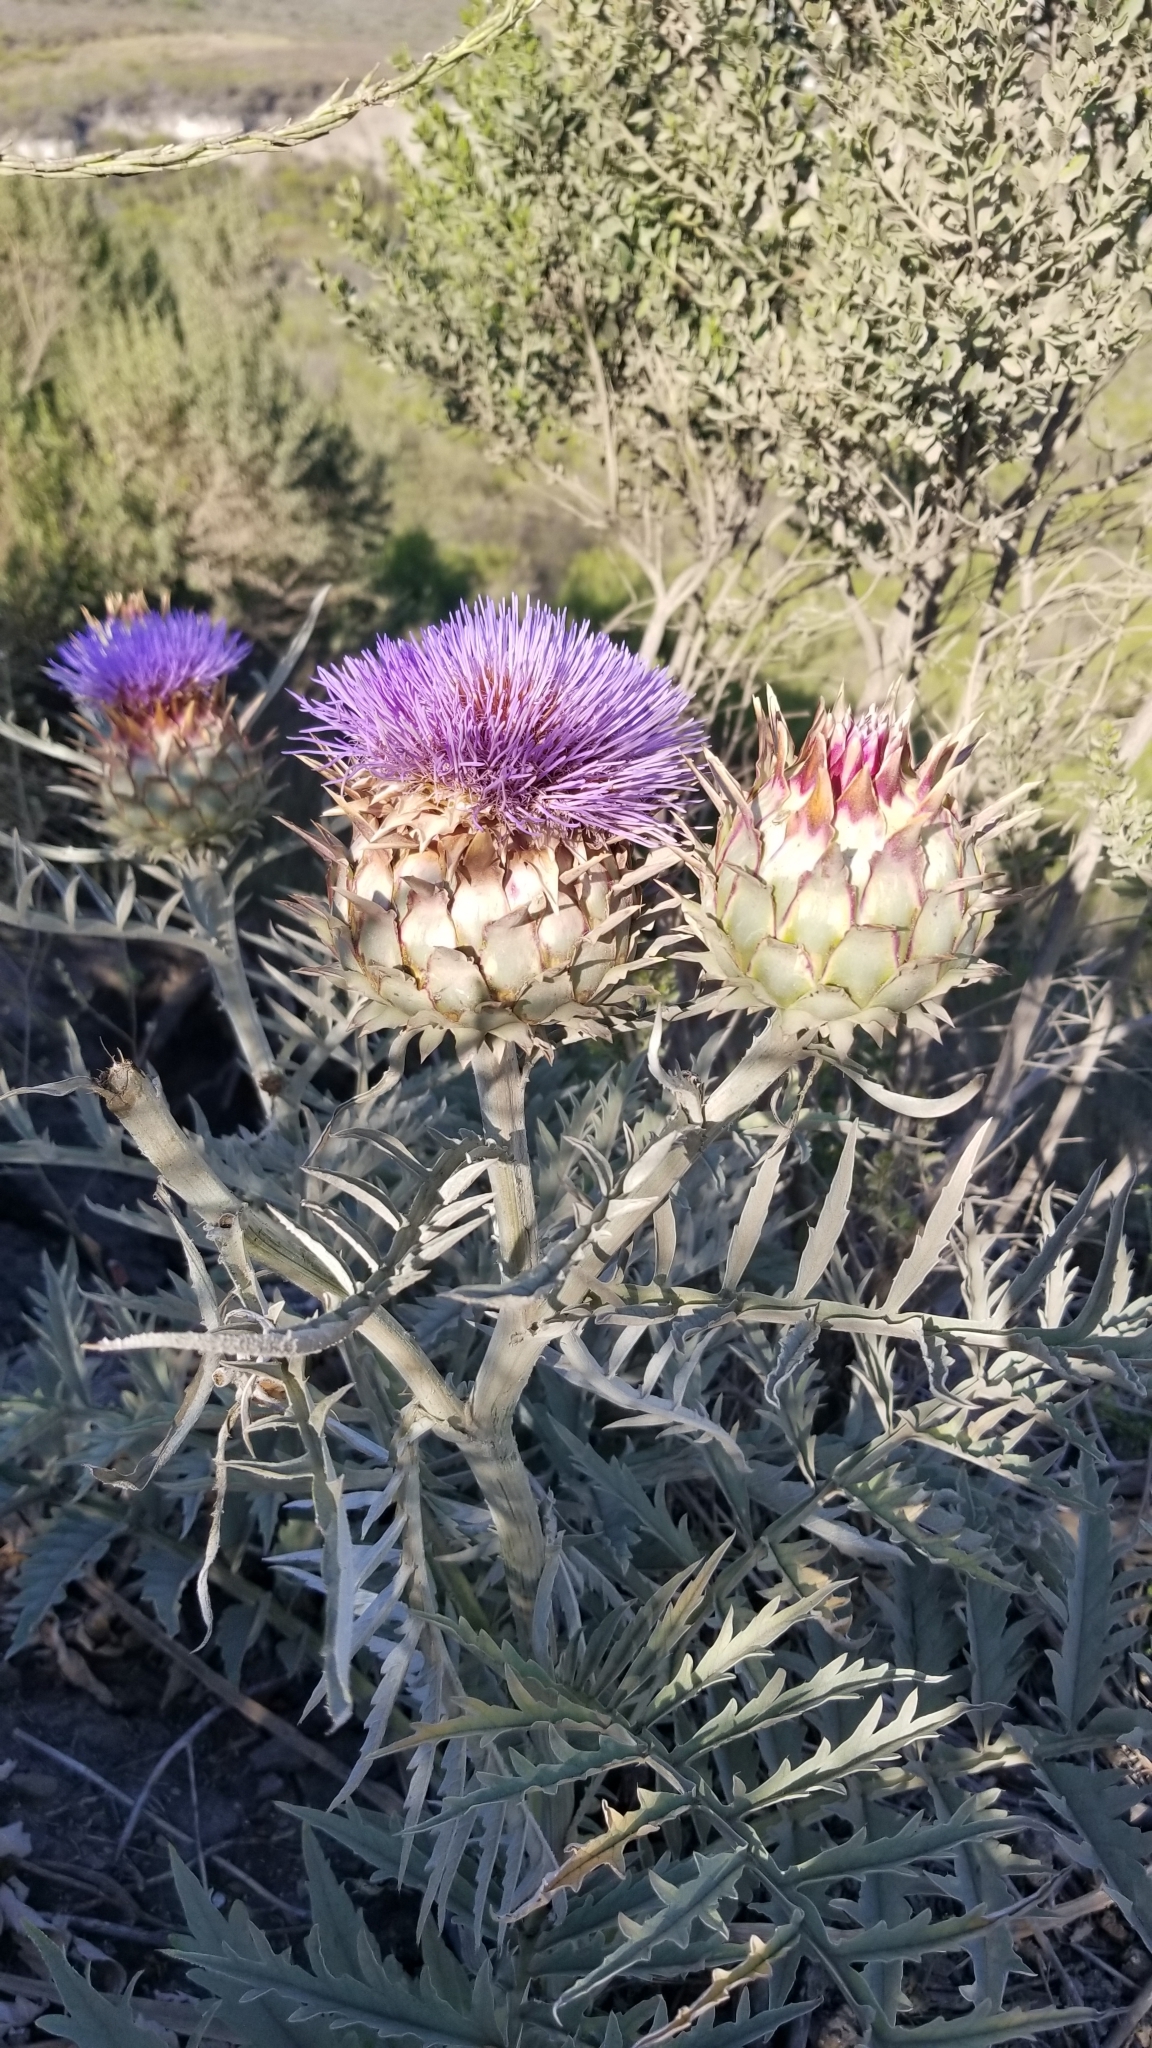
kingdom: Plantae
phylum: Tracheophyta
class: Magnoliopsida
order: Asterales
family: Asteraceae
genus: Cynara
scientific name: Cynara cardunculus
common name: Globe artichoke
